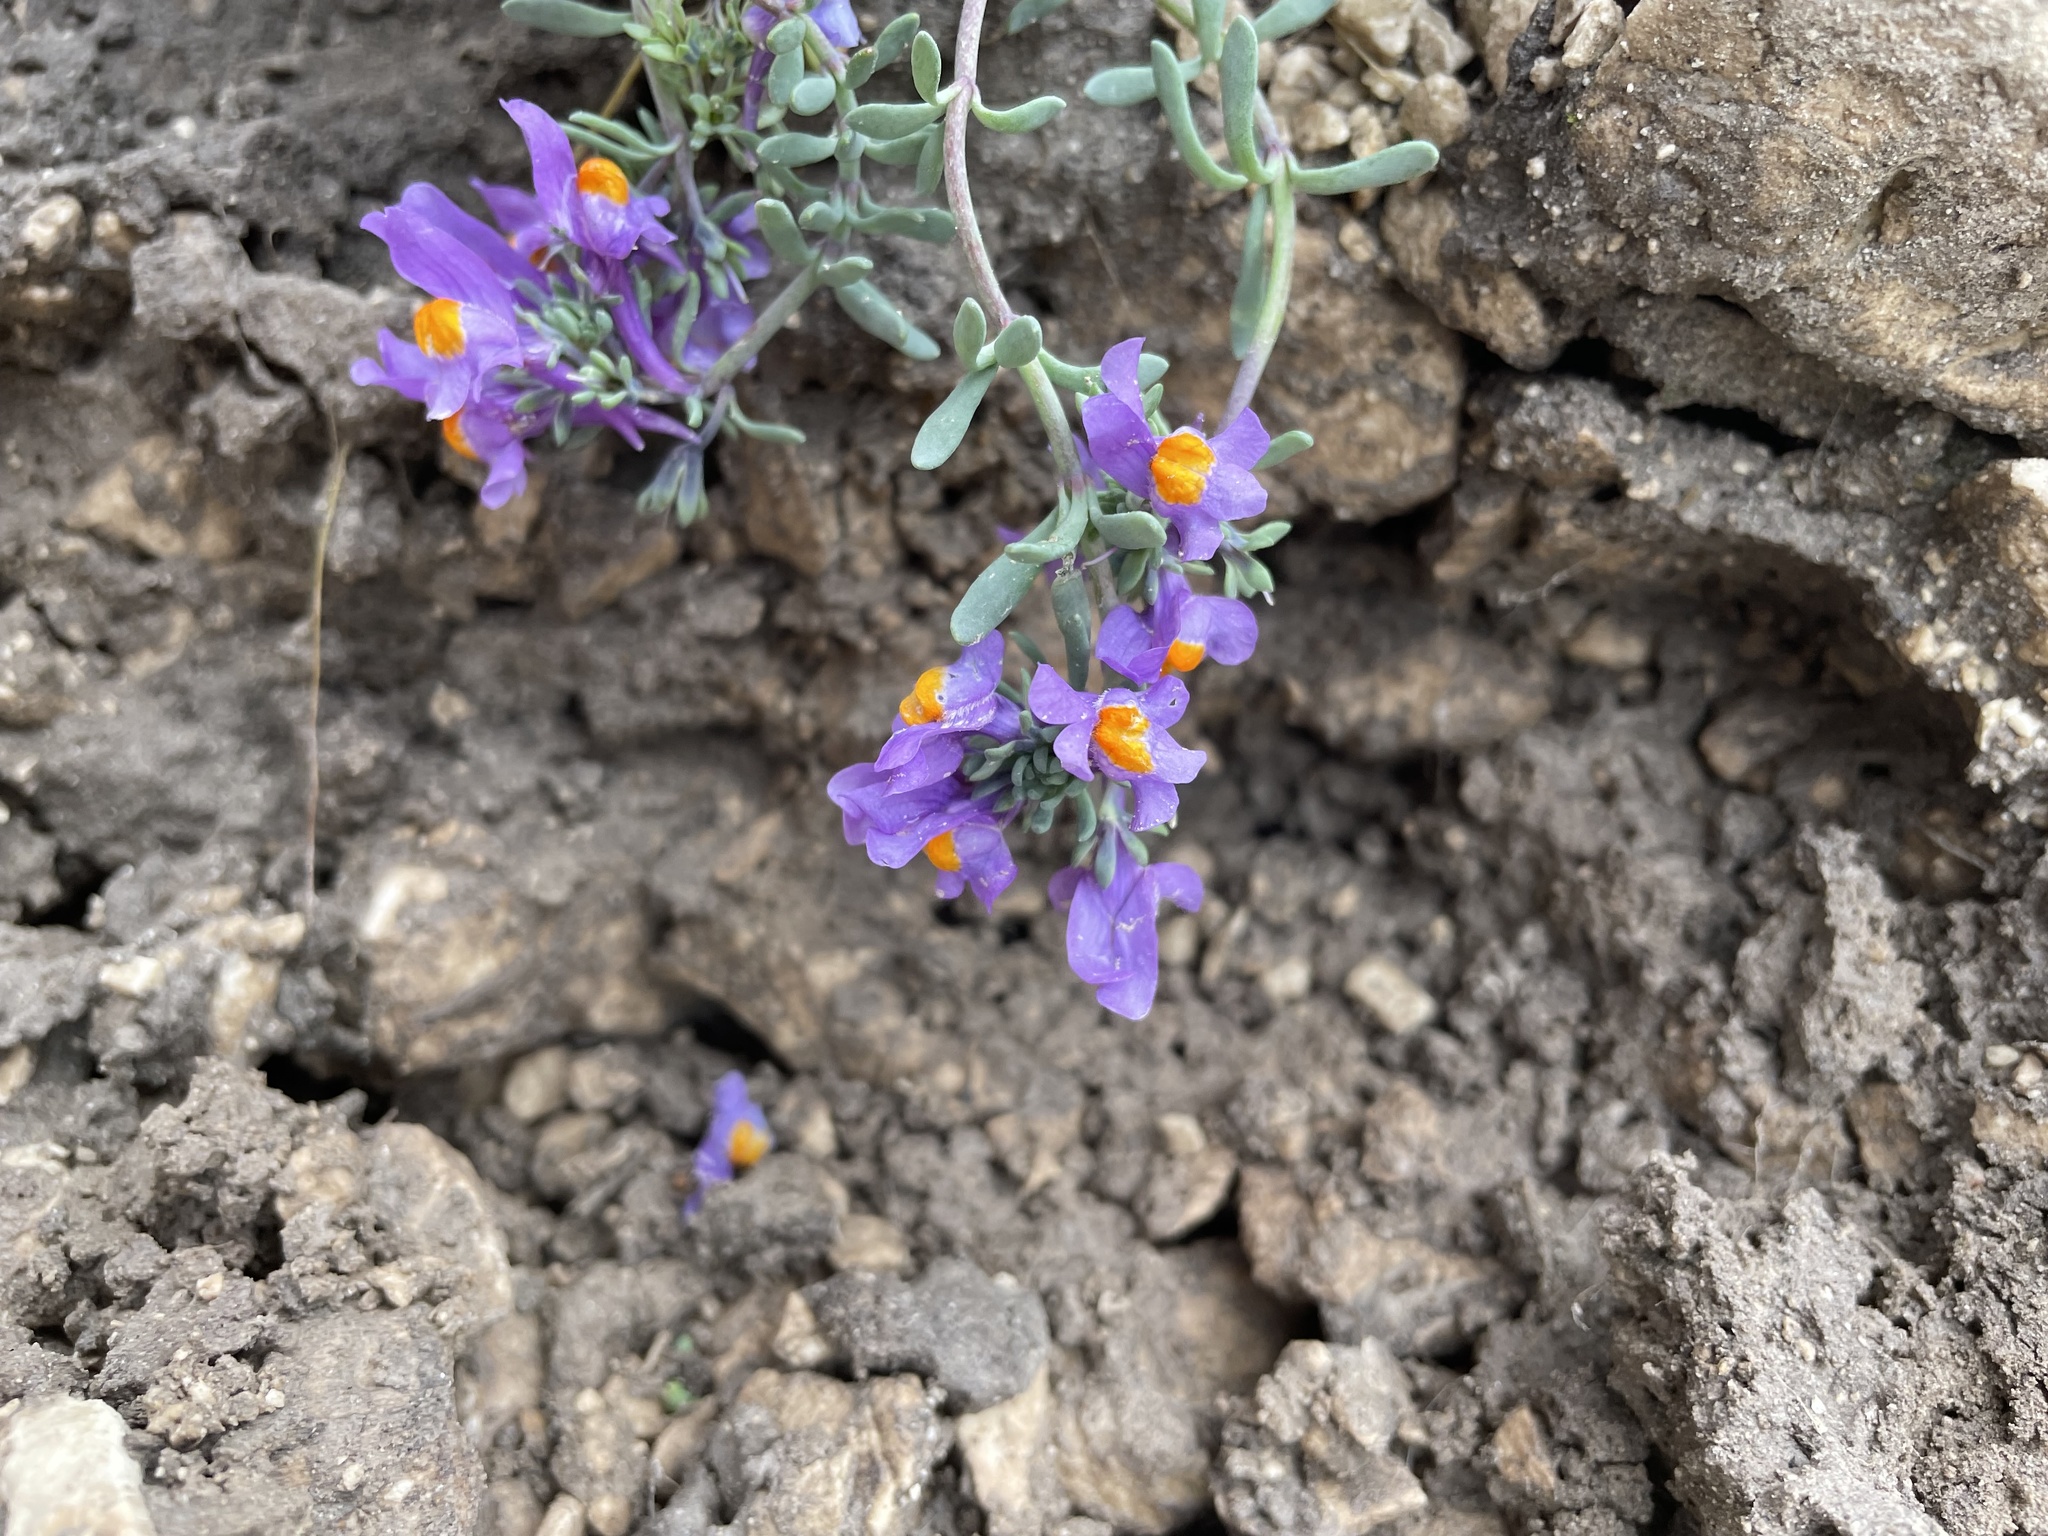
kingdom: Plantae
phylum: Tracheophyta
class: Magnoliopsida
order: Lamiales
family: Plantaginaceae
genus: Linaria
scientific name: Linaria alpina
